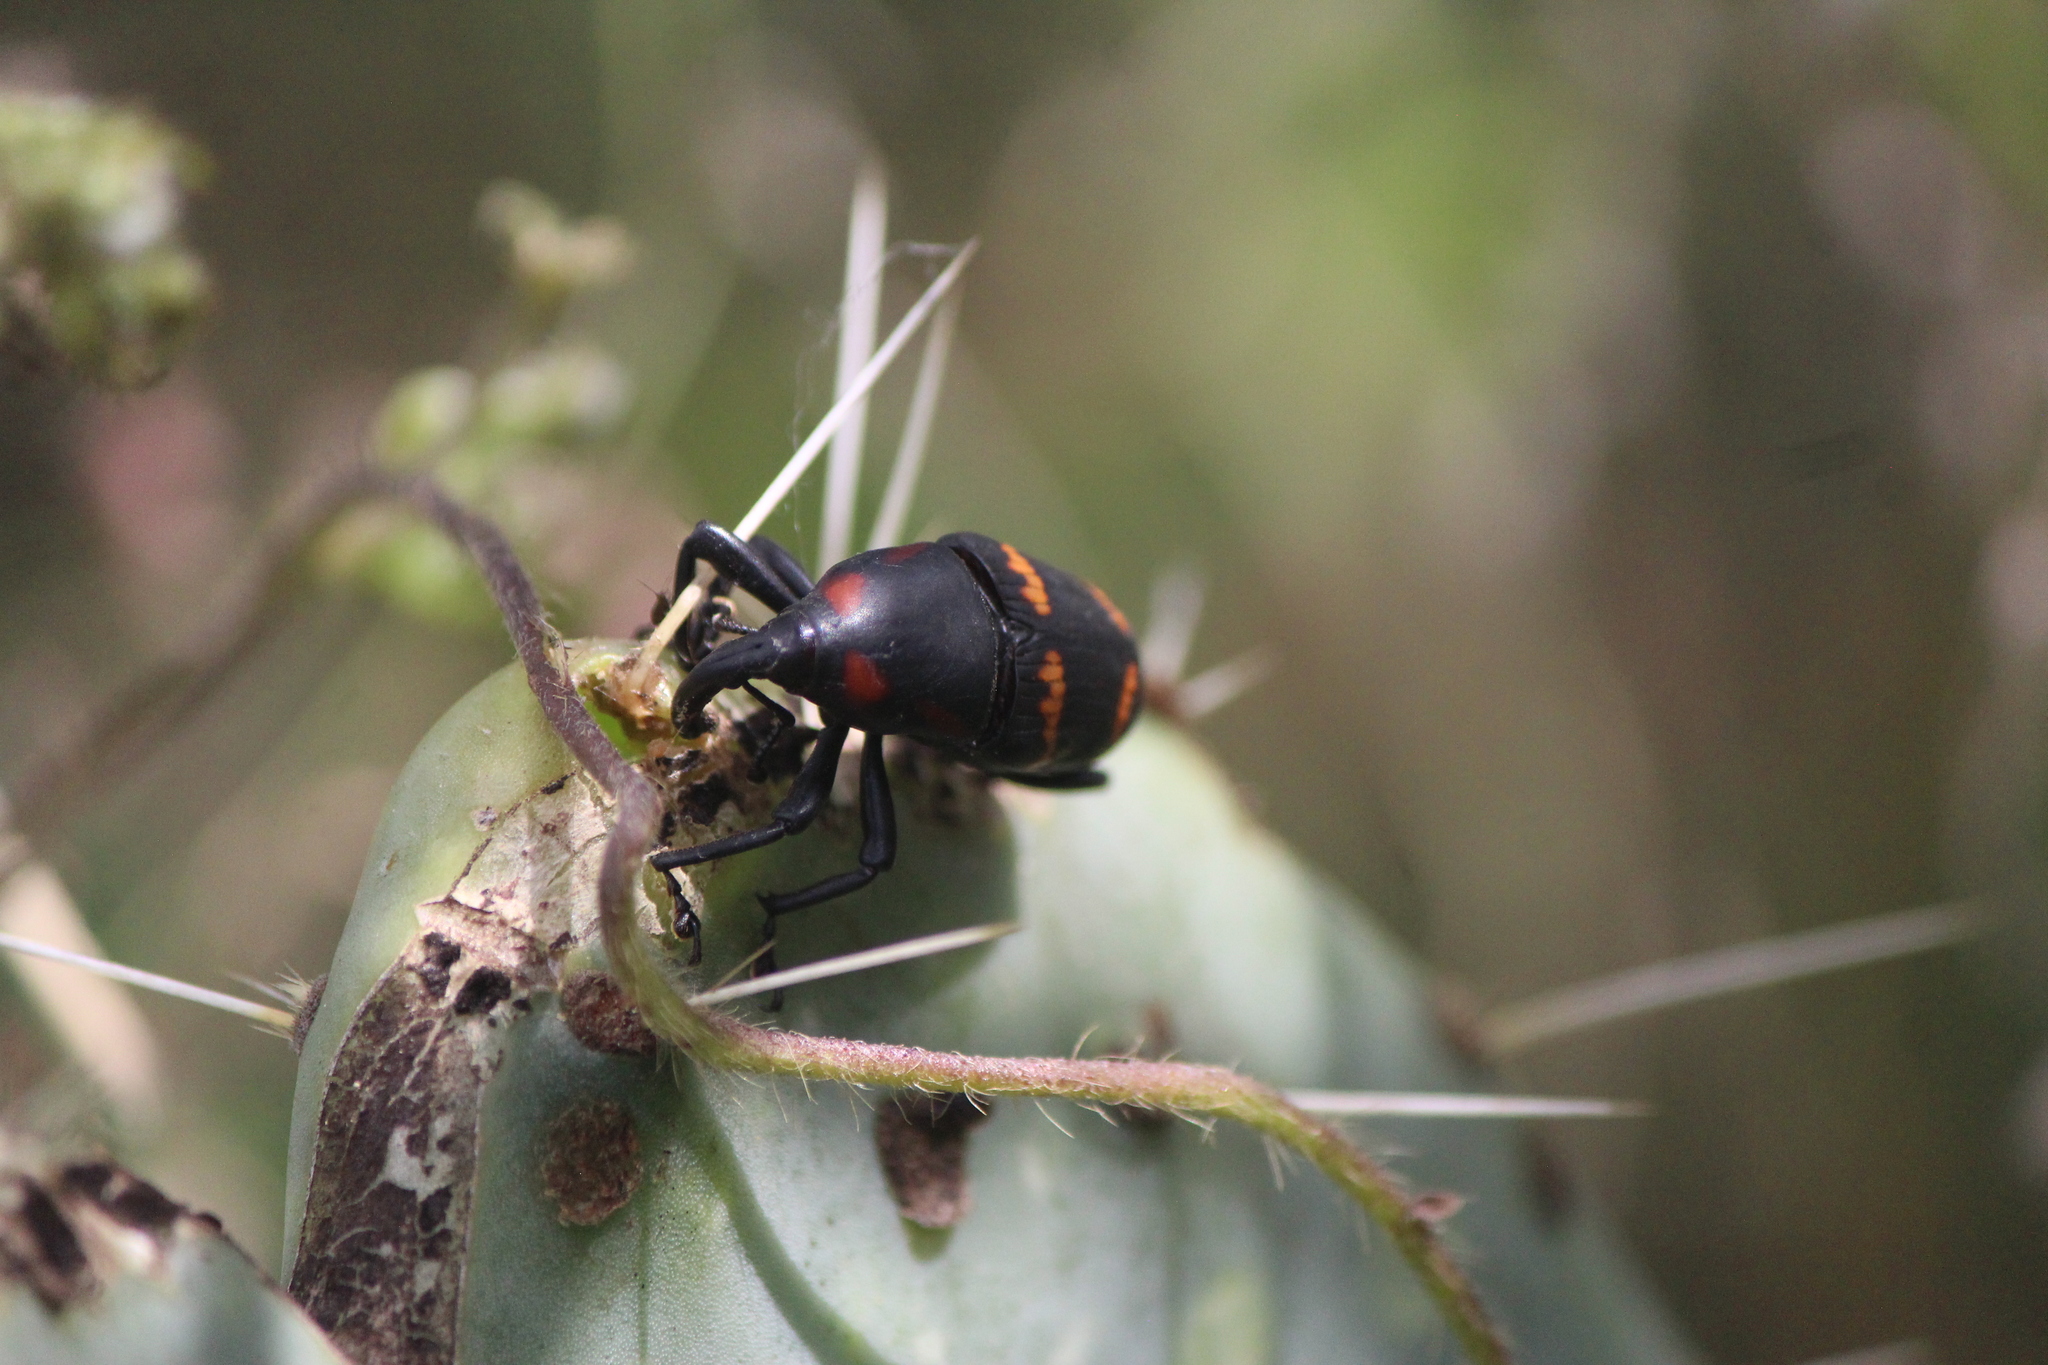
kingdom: Animalia
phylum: Arthropoda
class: Insecta
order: Coleoptera
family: Dryophthoridae
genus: Cactophagus
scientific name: Cactophagus spinolae
